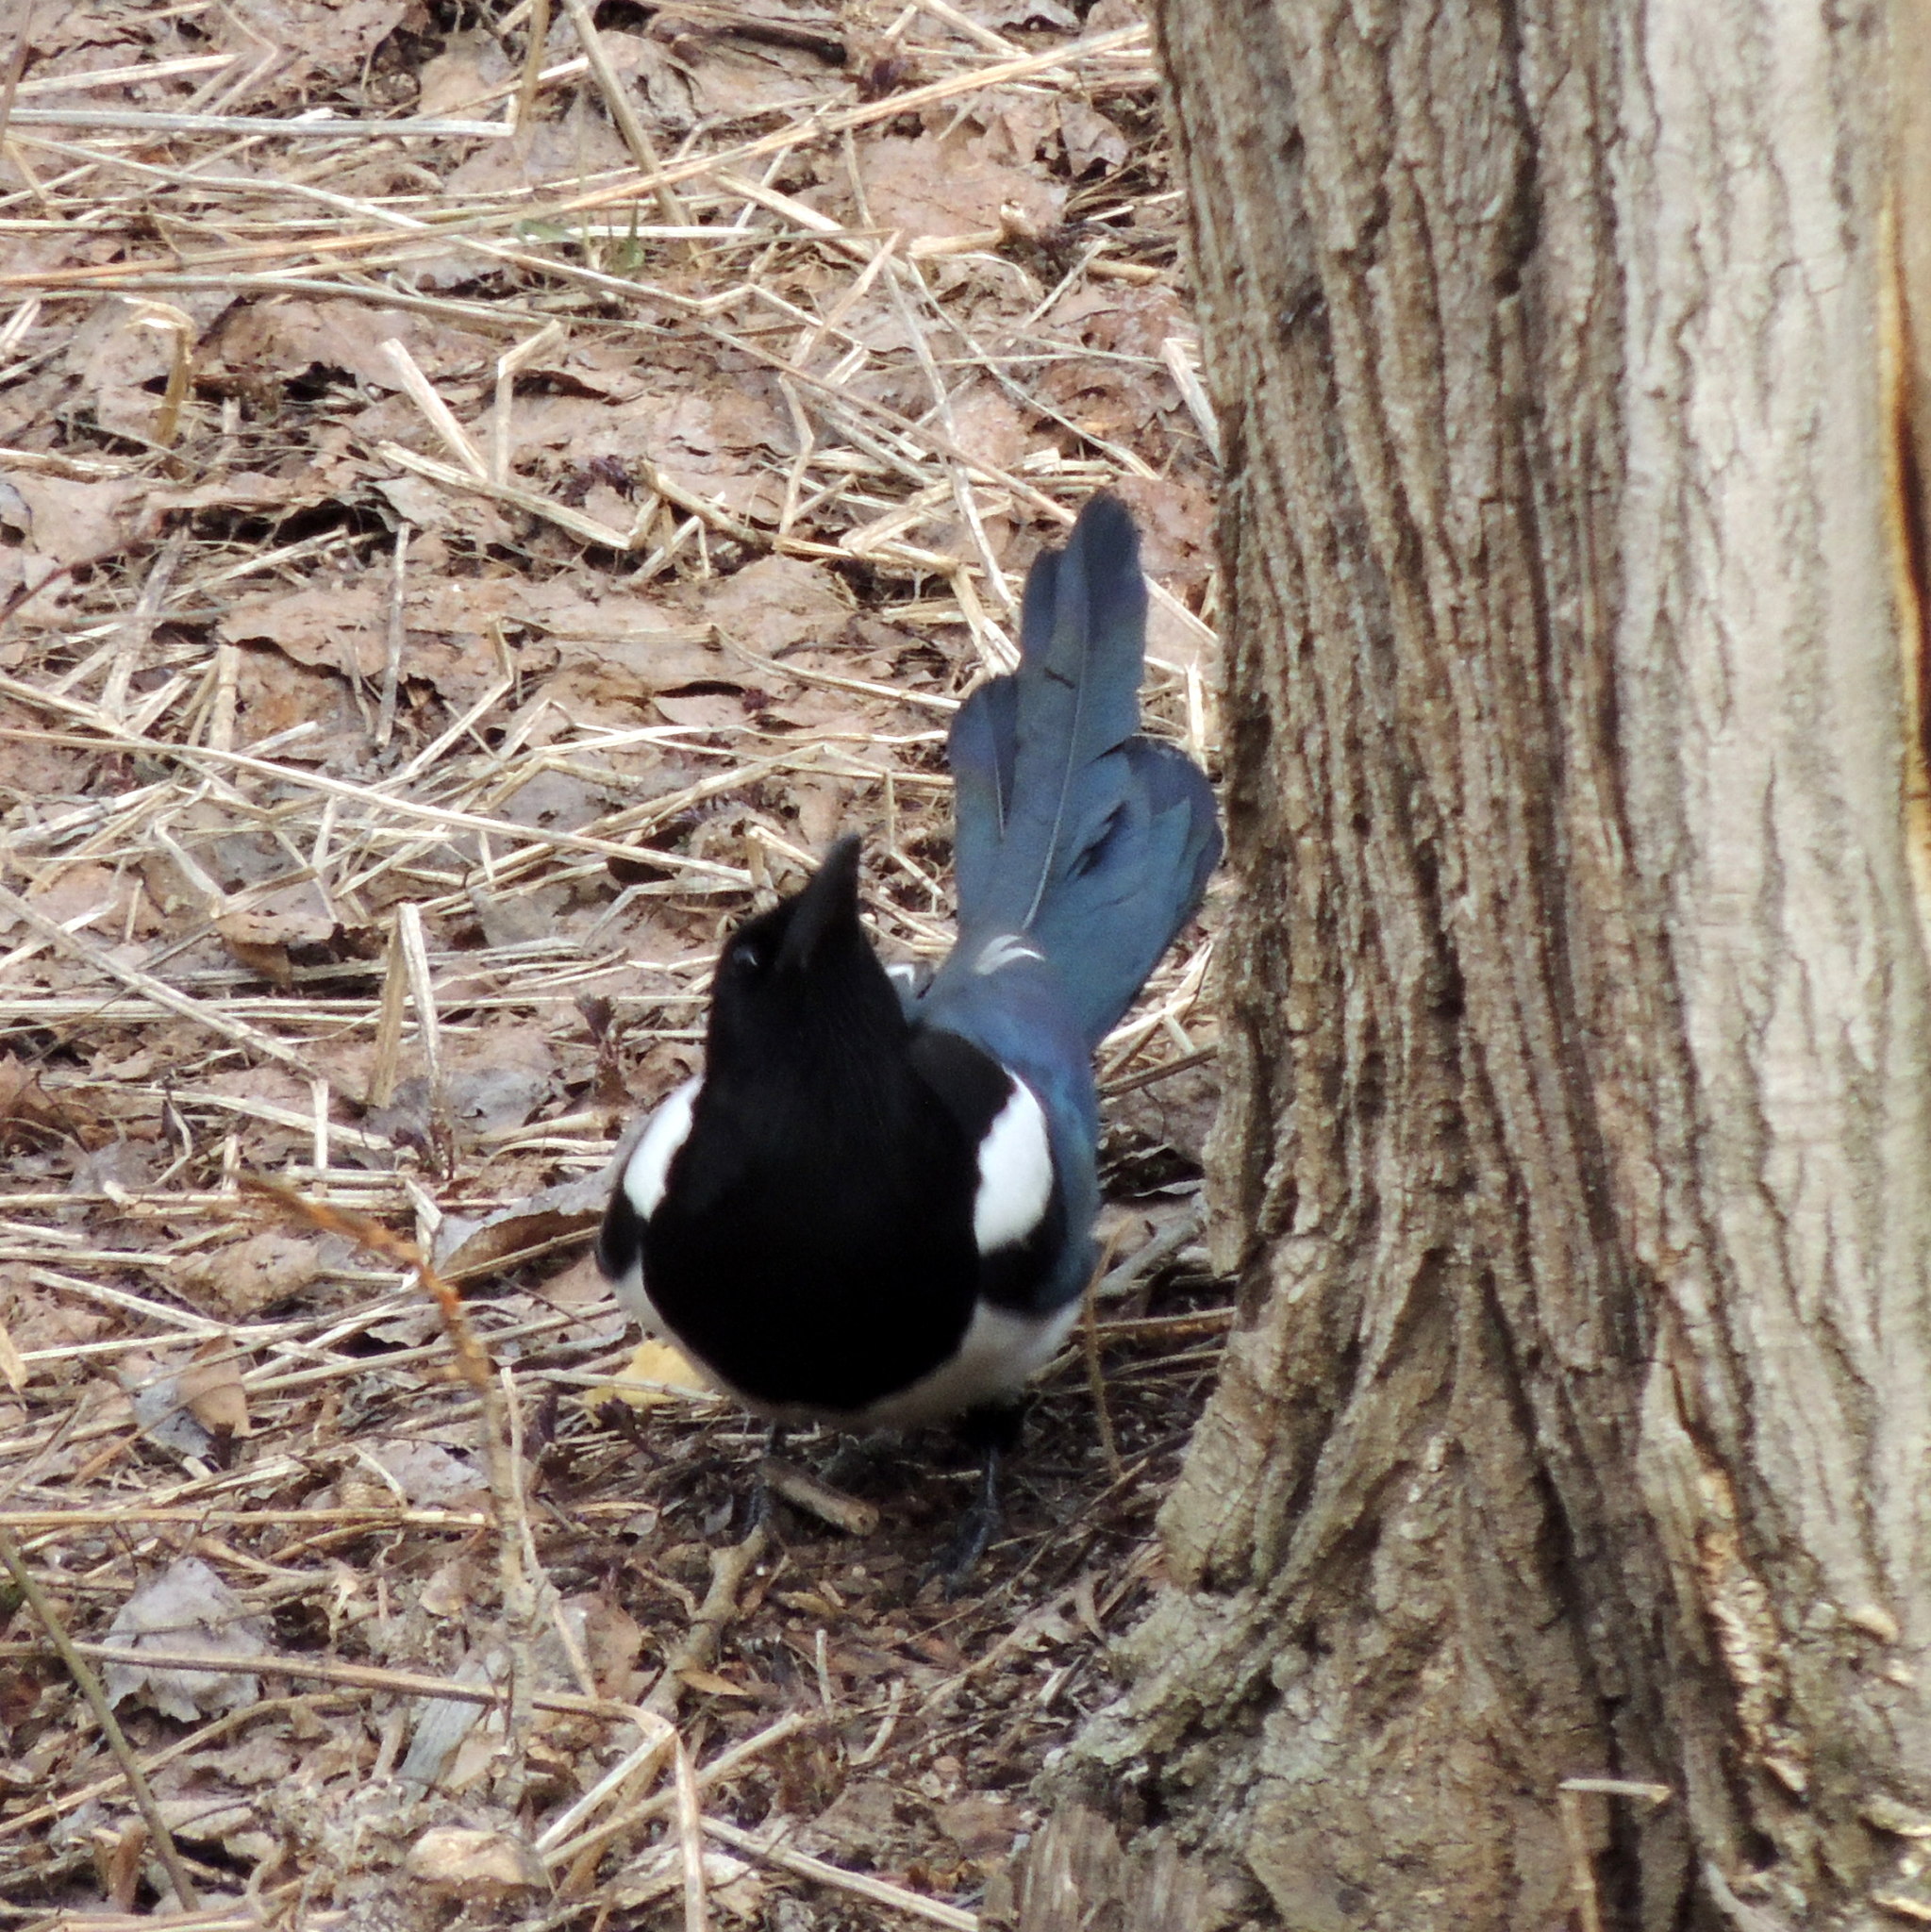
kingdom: Animalia
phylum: Chordata
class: Aves
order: Passeriformes
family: Corvidae
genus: Pica
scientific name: Pica pica
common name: Eurasian magpie
